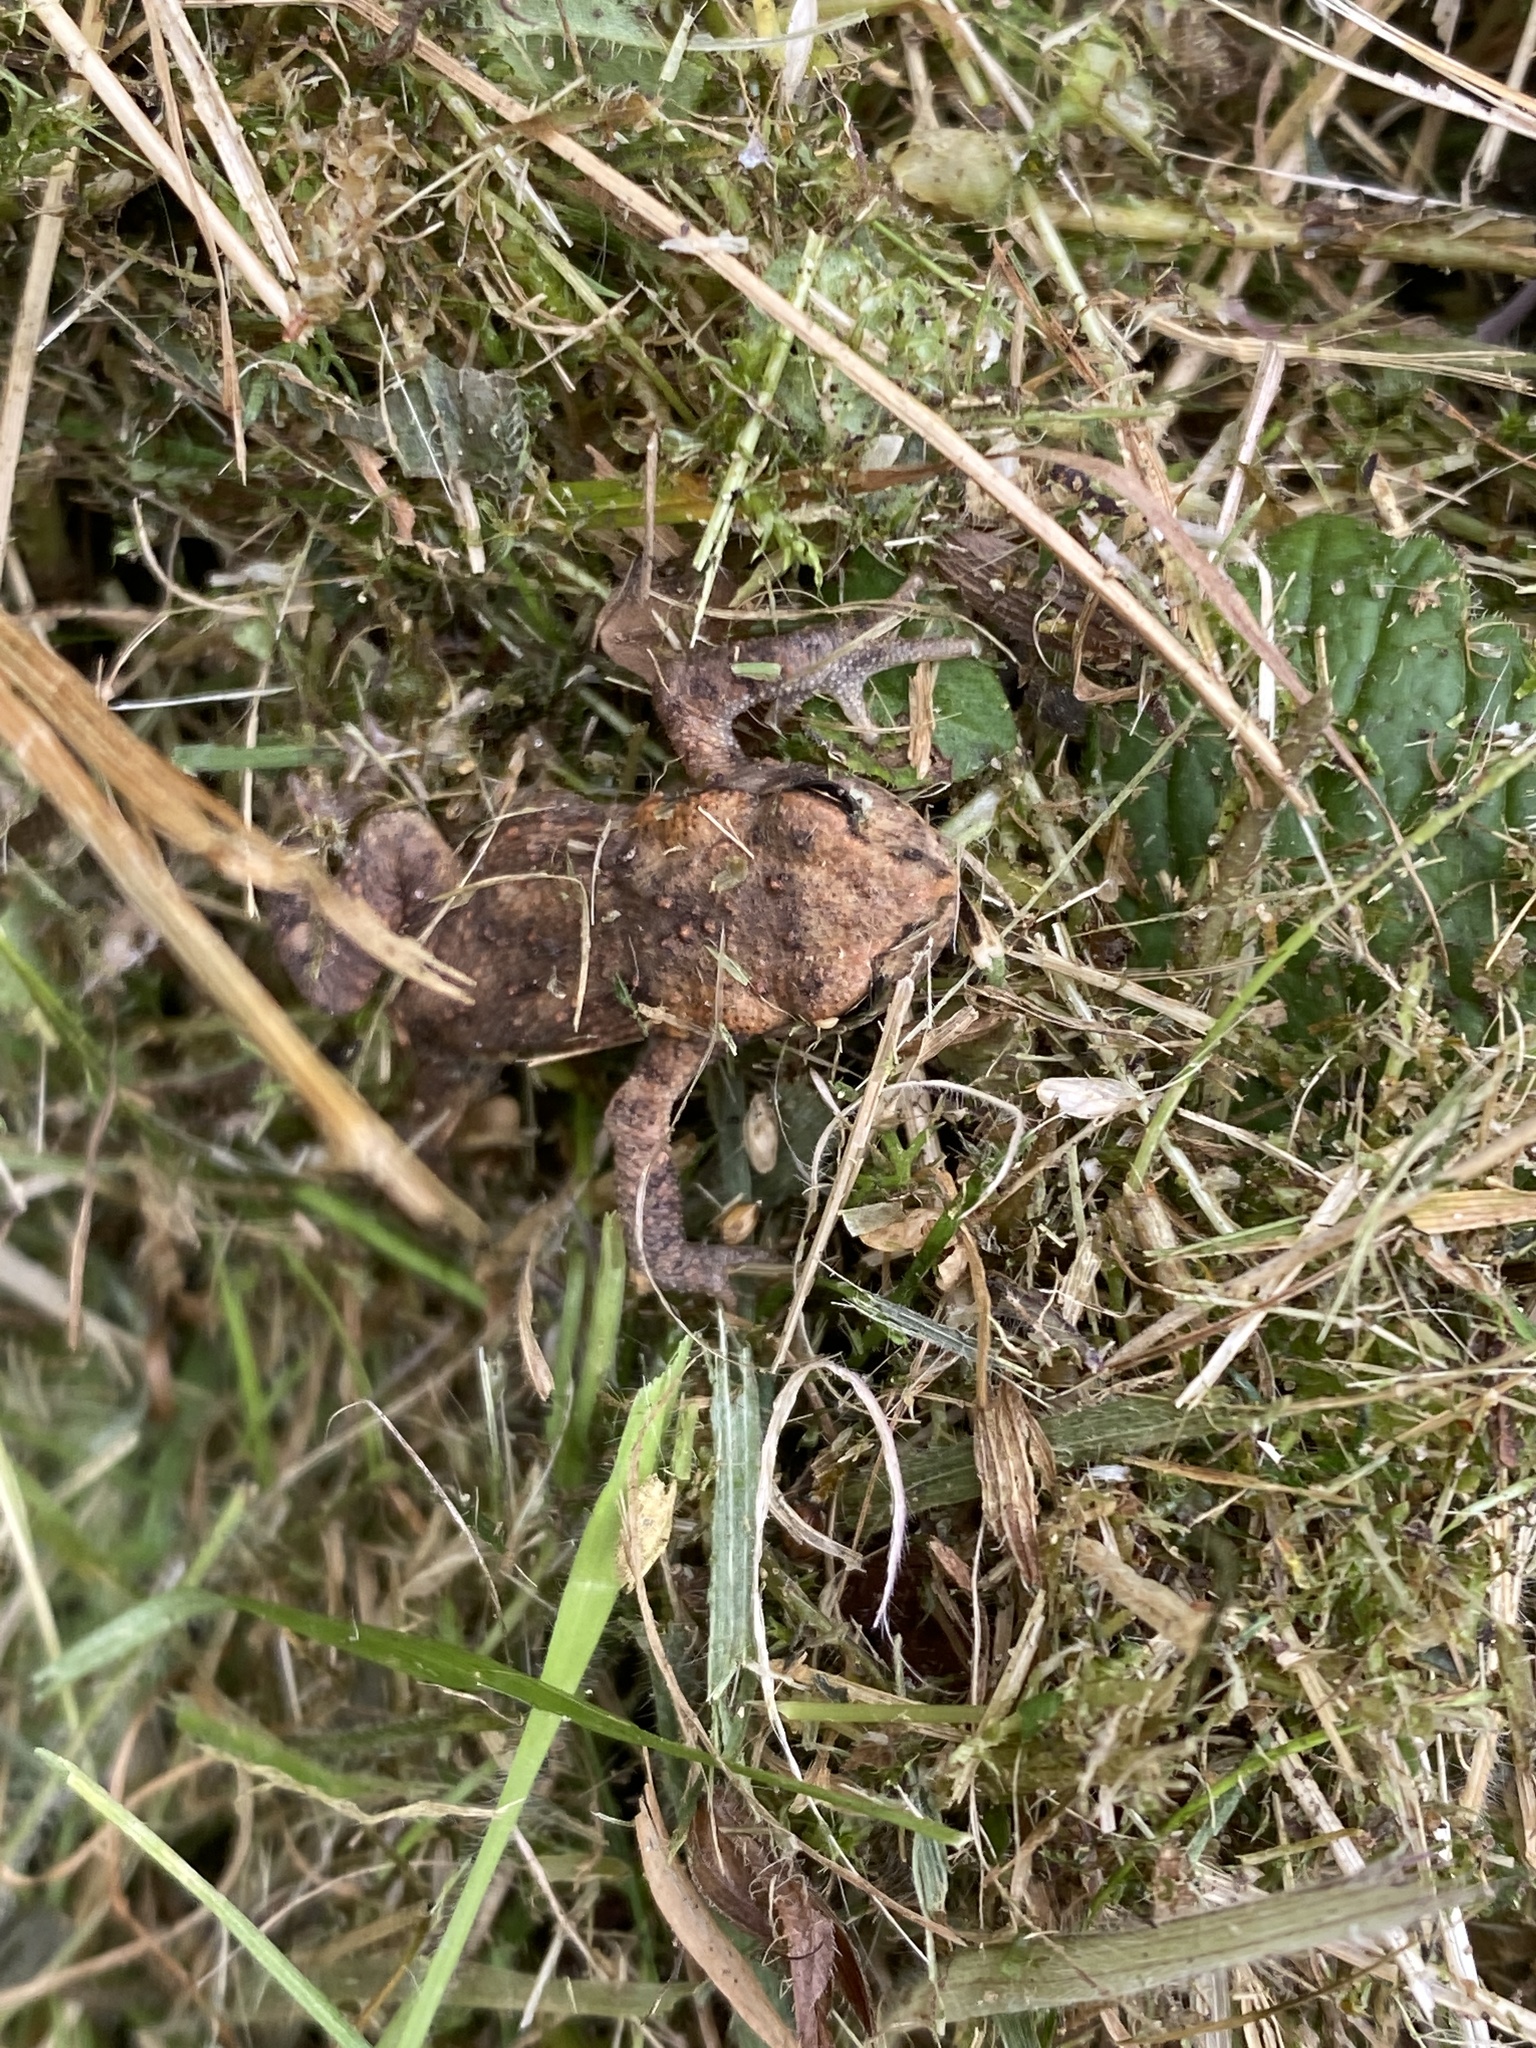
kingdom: Animalia
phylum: Chordata
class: Amphibia
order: Anura
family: Bufonidae
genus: Bufo
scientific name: Bufo bufo
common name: Common toad
